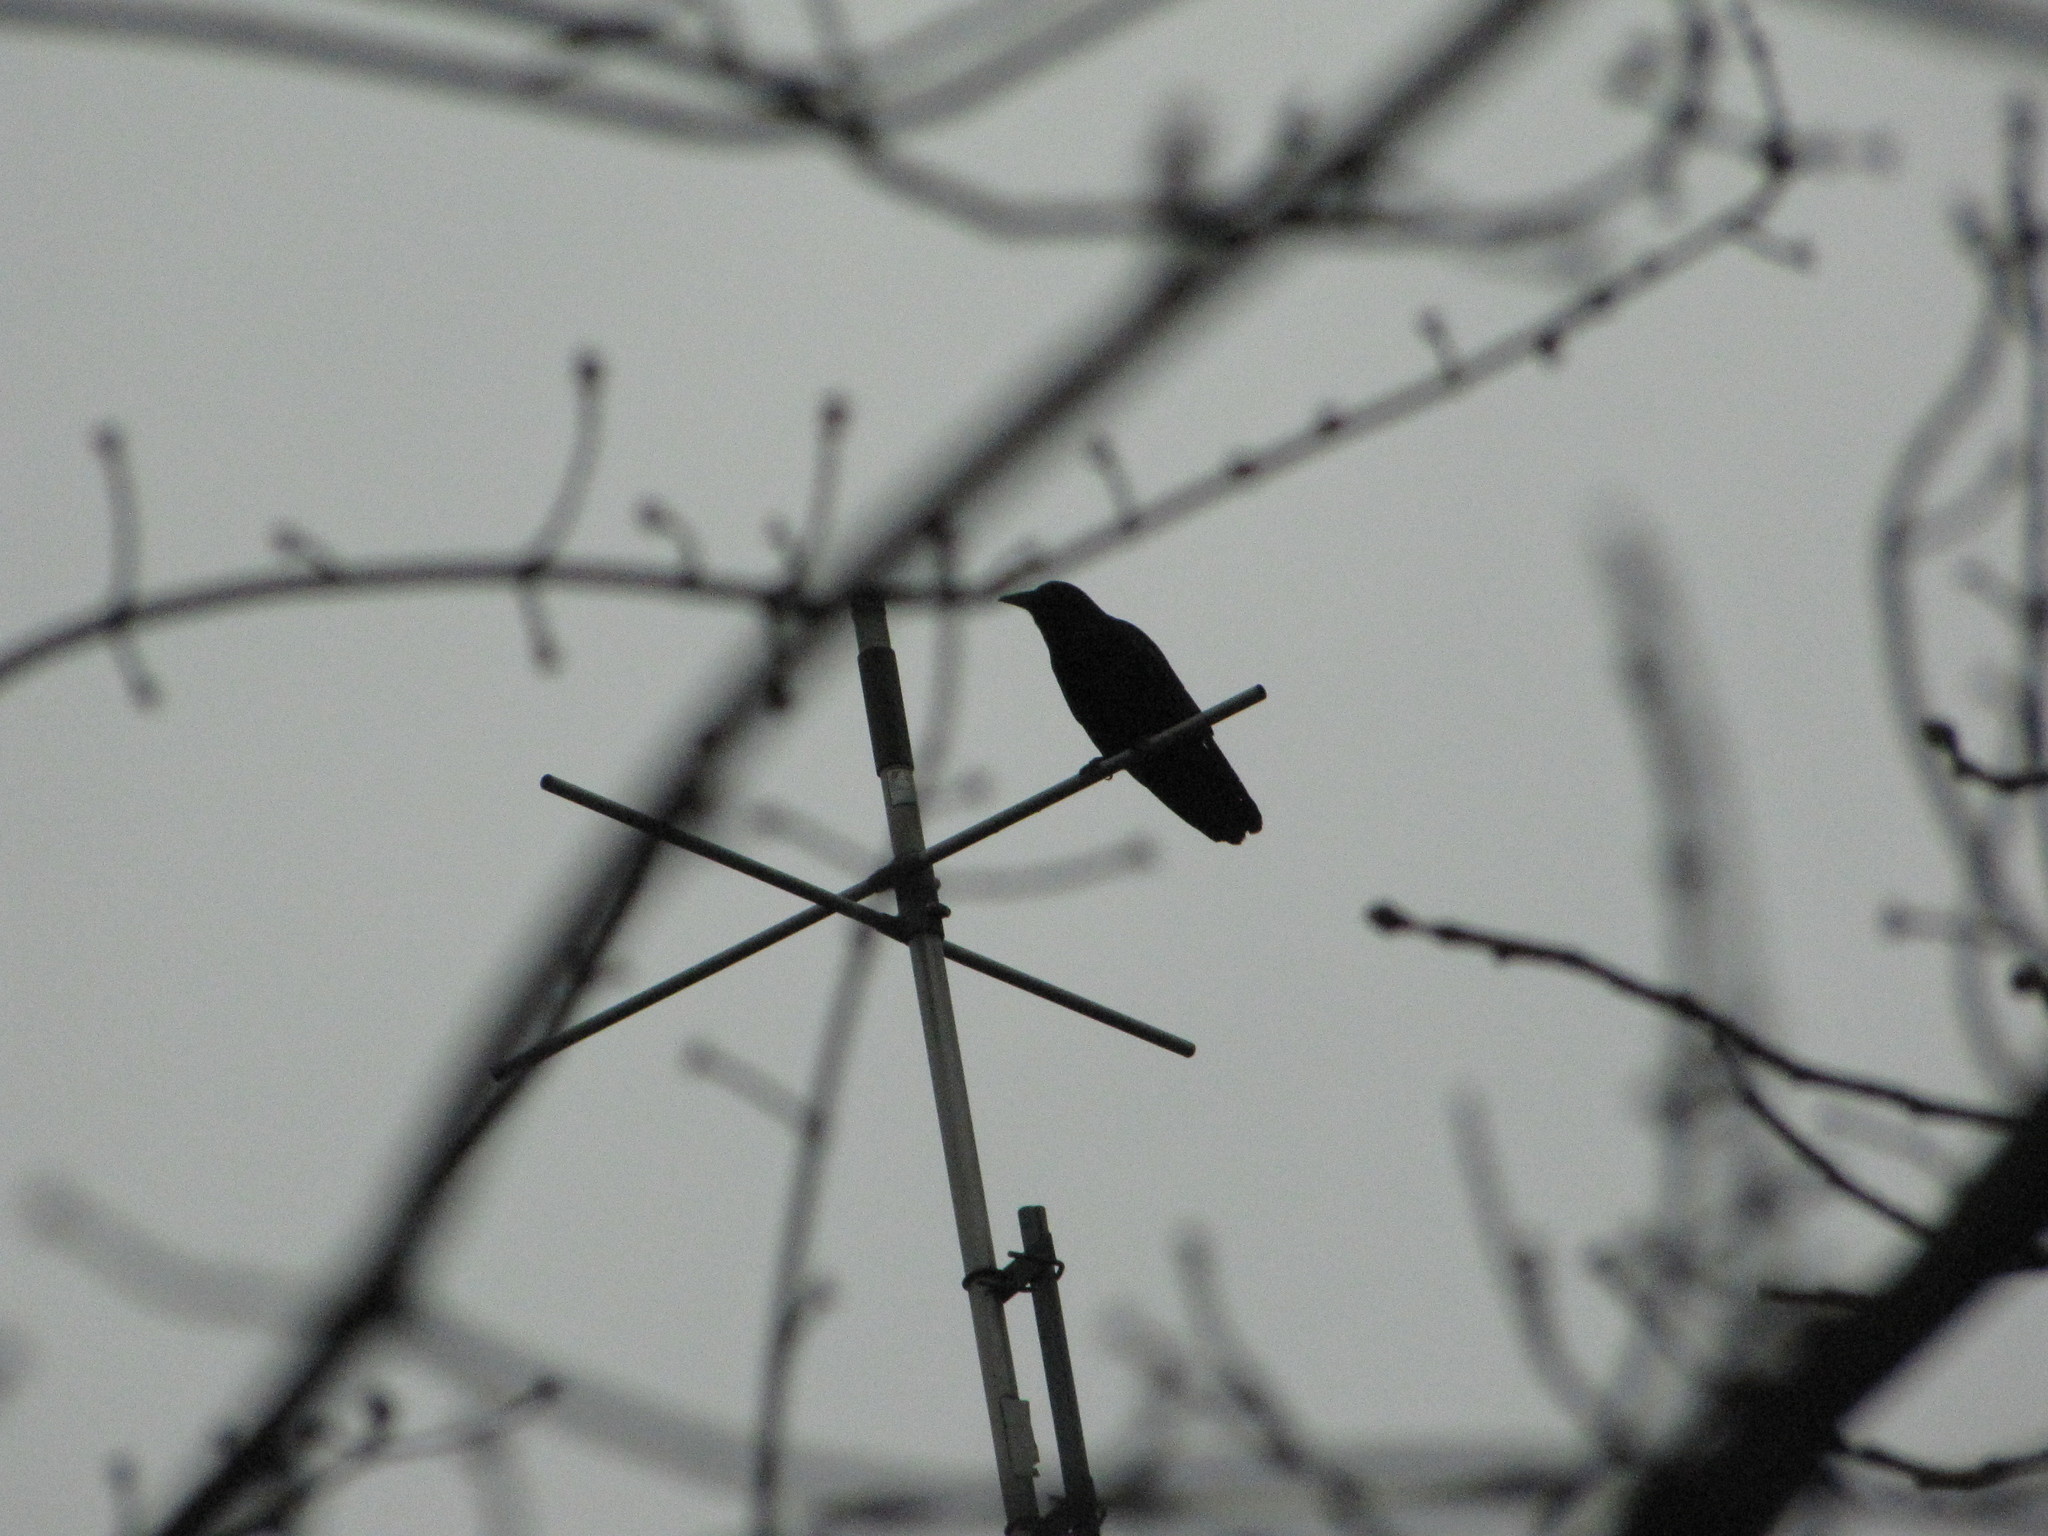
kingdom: Animalia
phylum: Chordata
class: Aves
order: Passeriformes
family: Corvidae
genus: Corvus
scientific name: Corvus brachyrhynchos
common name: American crow
